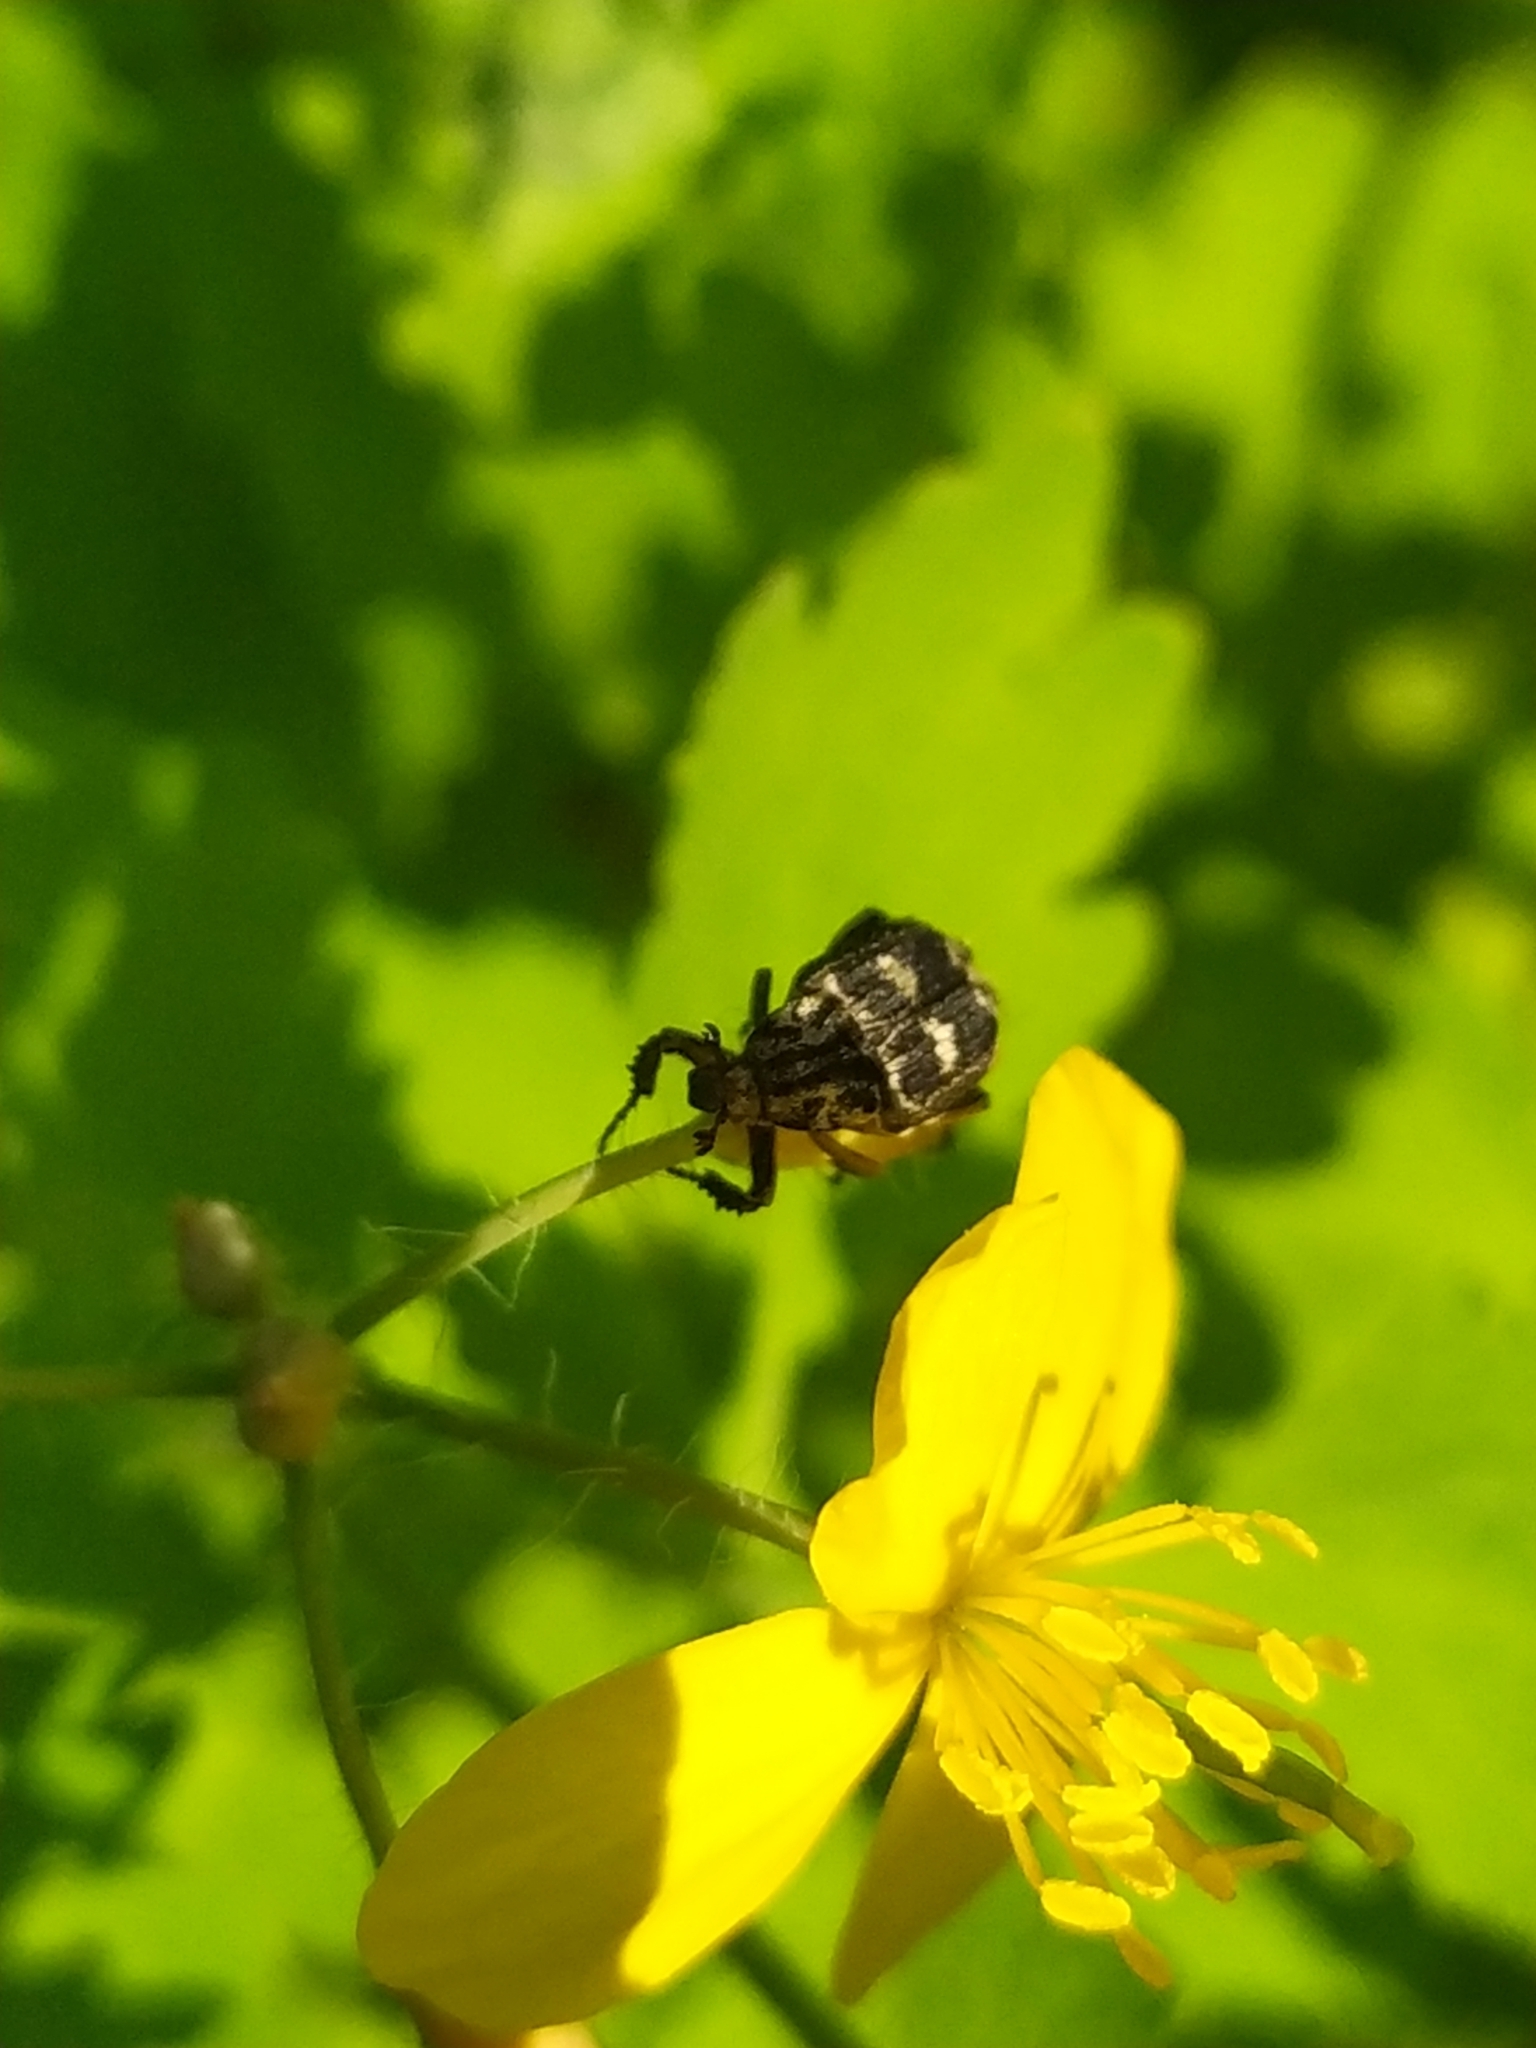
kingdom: Animalia
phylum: Arthropoda
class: Insecta
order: Coleoptera
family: Scarabaeidae
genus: Valgus
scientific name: Valgus hemipterus
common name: Bug flower chafer
